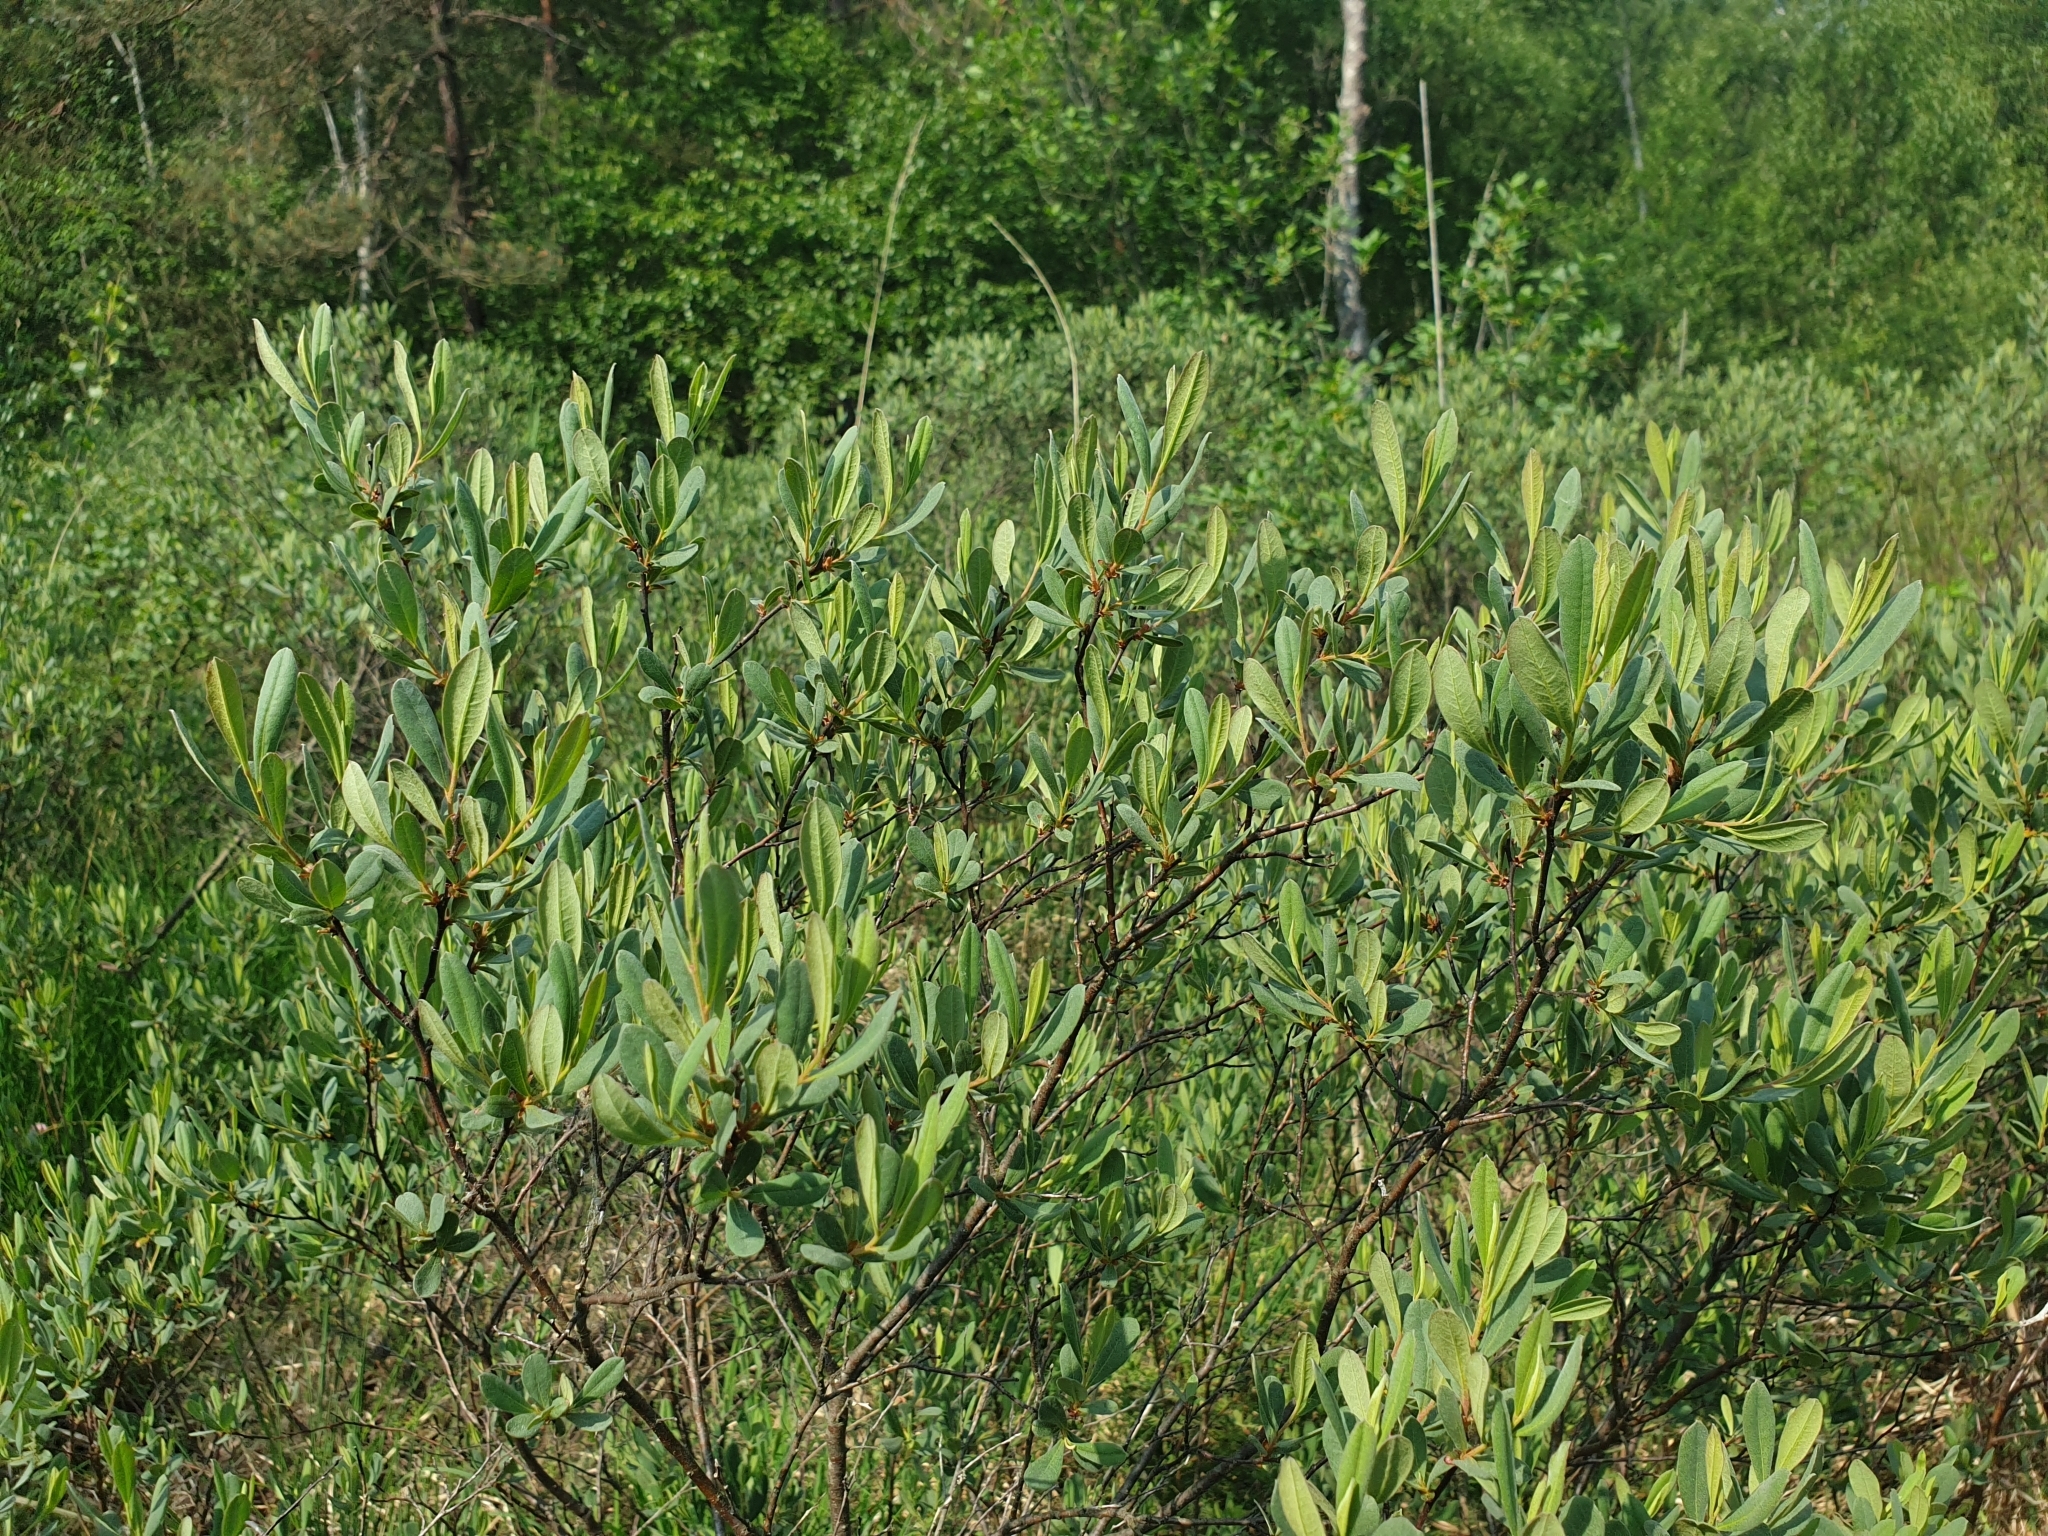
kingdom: Plantae
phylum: Tracheophyta
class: Magnoliopsida
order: Fagales
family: Myricaceae
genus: Myrica
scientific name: Myrica gale
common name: Sweet gale
